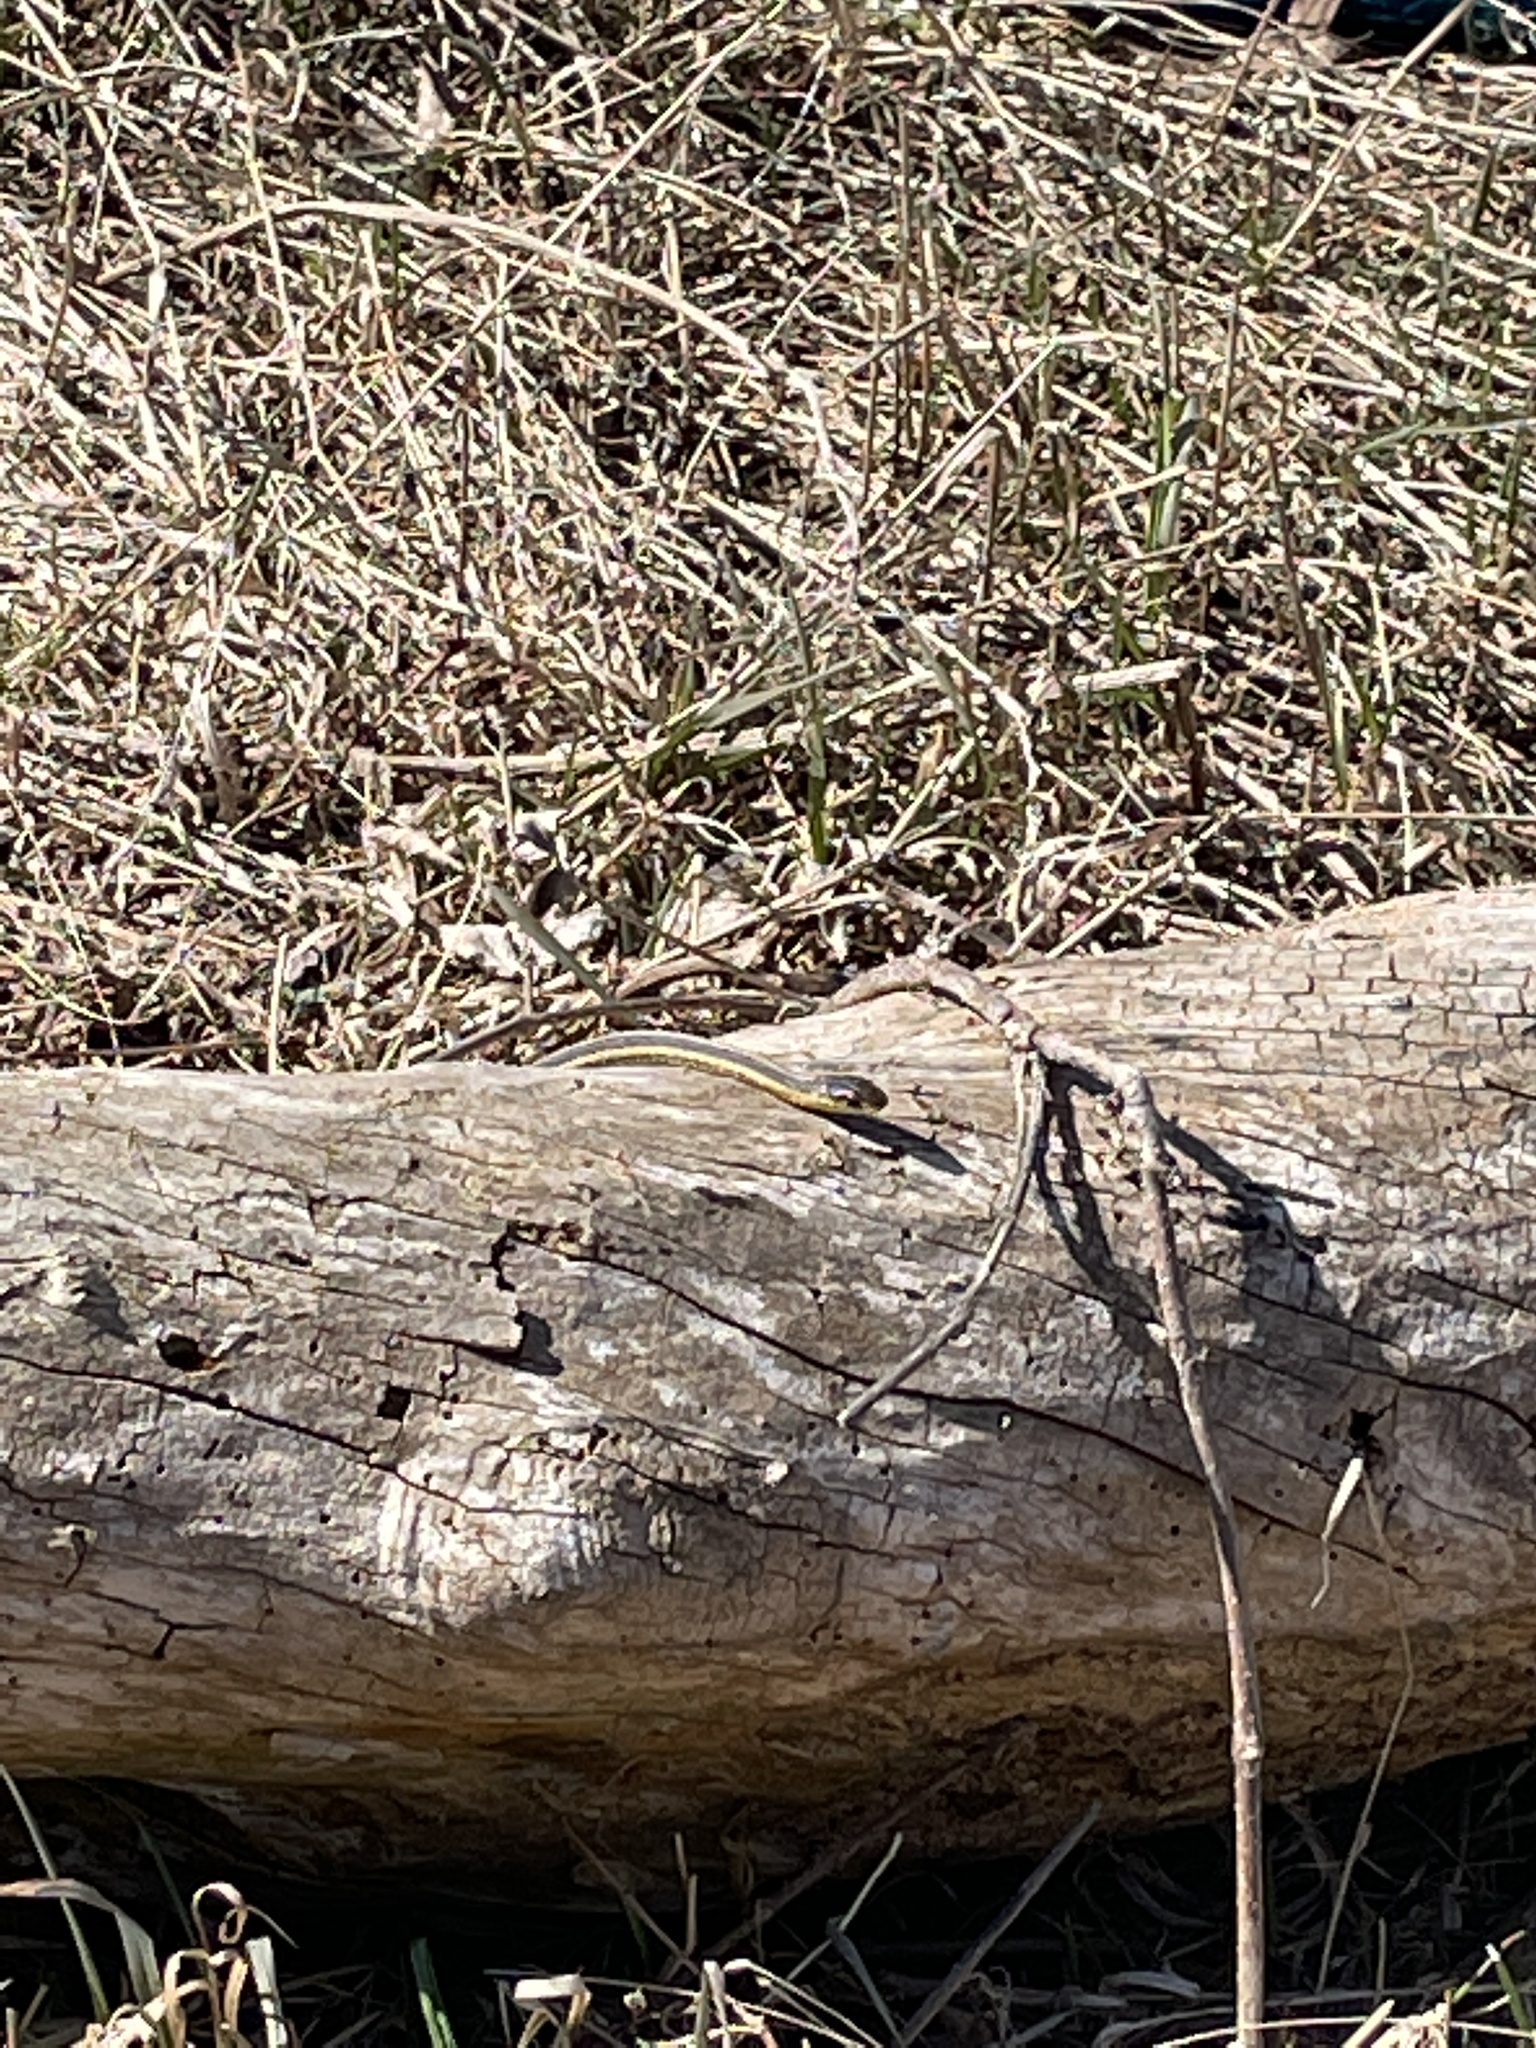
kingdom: Animalia
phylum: Chordata
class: Squamata
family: Colubridae
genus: Thamnophis
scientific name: Thamnophis sirtalis
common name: Common garter snake
